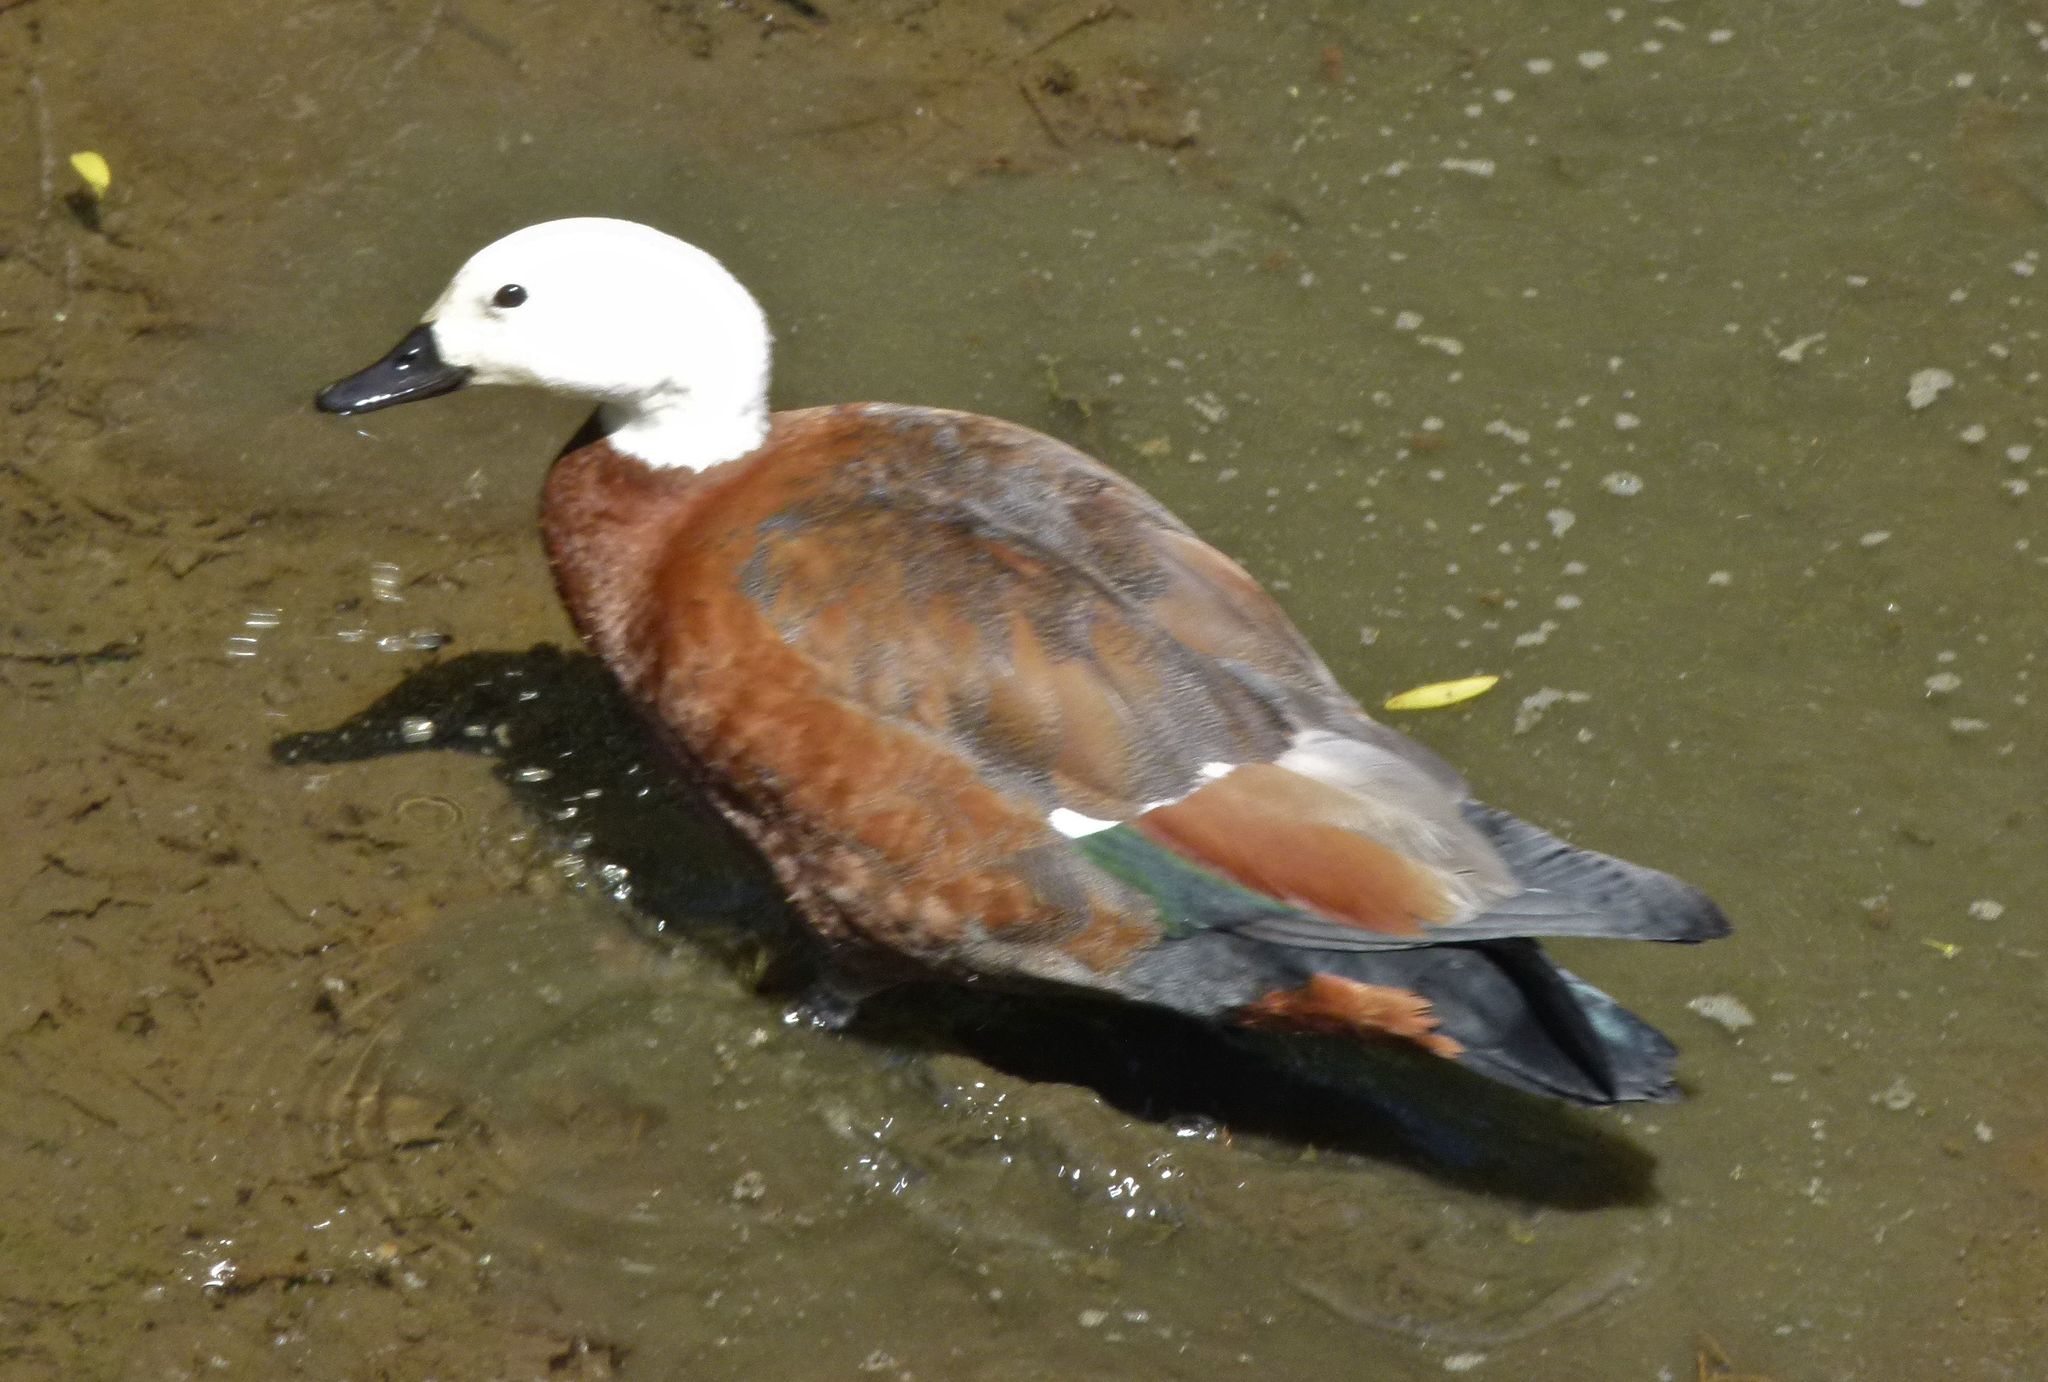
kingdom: Animalia
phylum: Chordata
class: Aves
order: Anseriformes
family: Anatidae
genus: Tadorna
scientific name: Tadorna variegata
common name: Paradise shelduck
